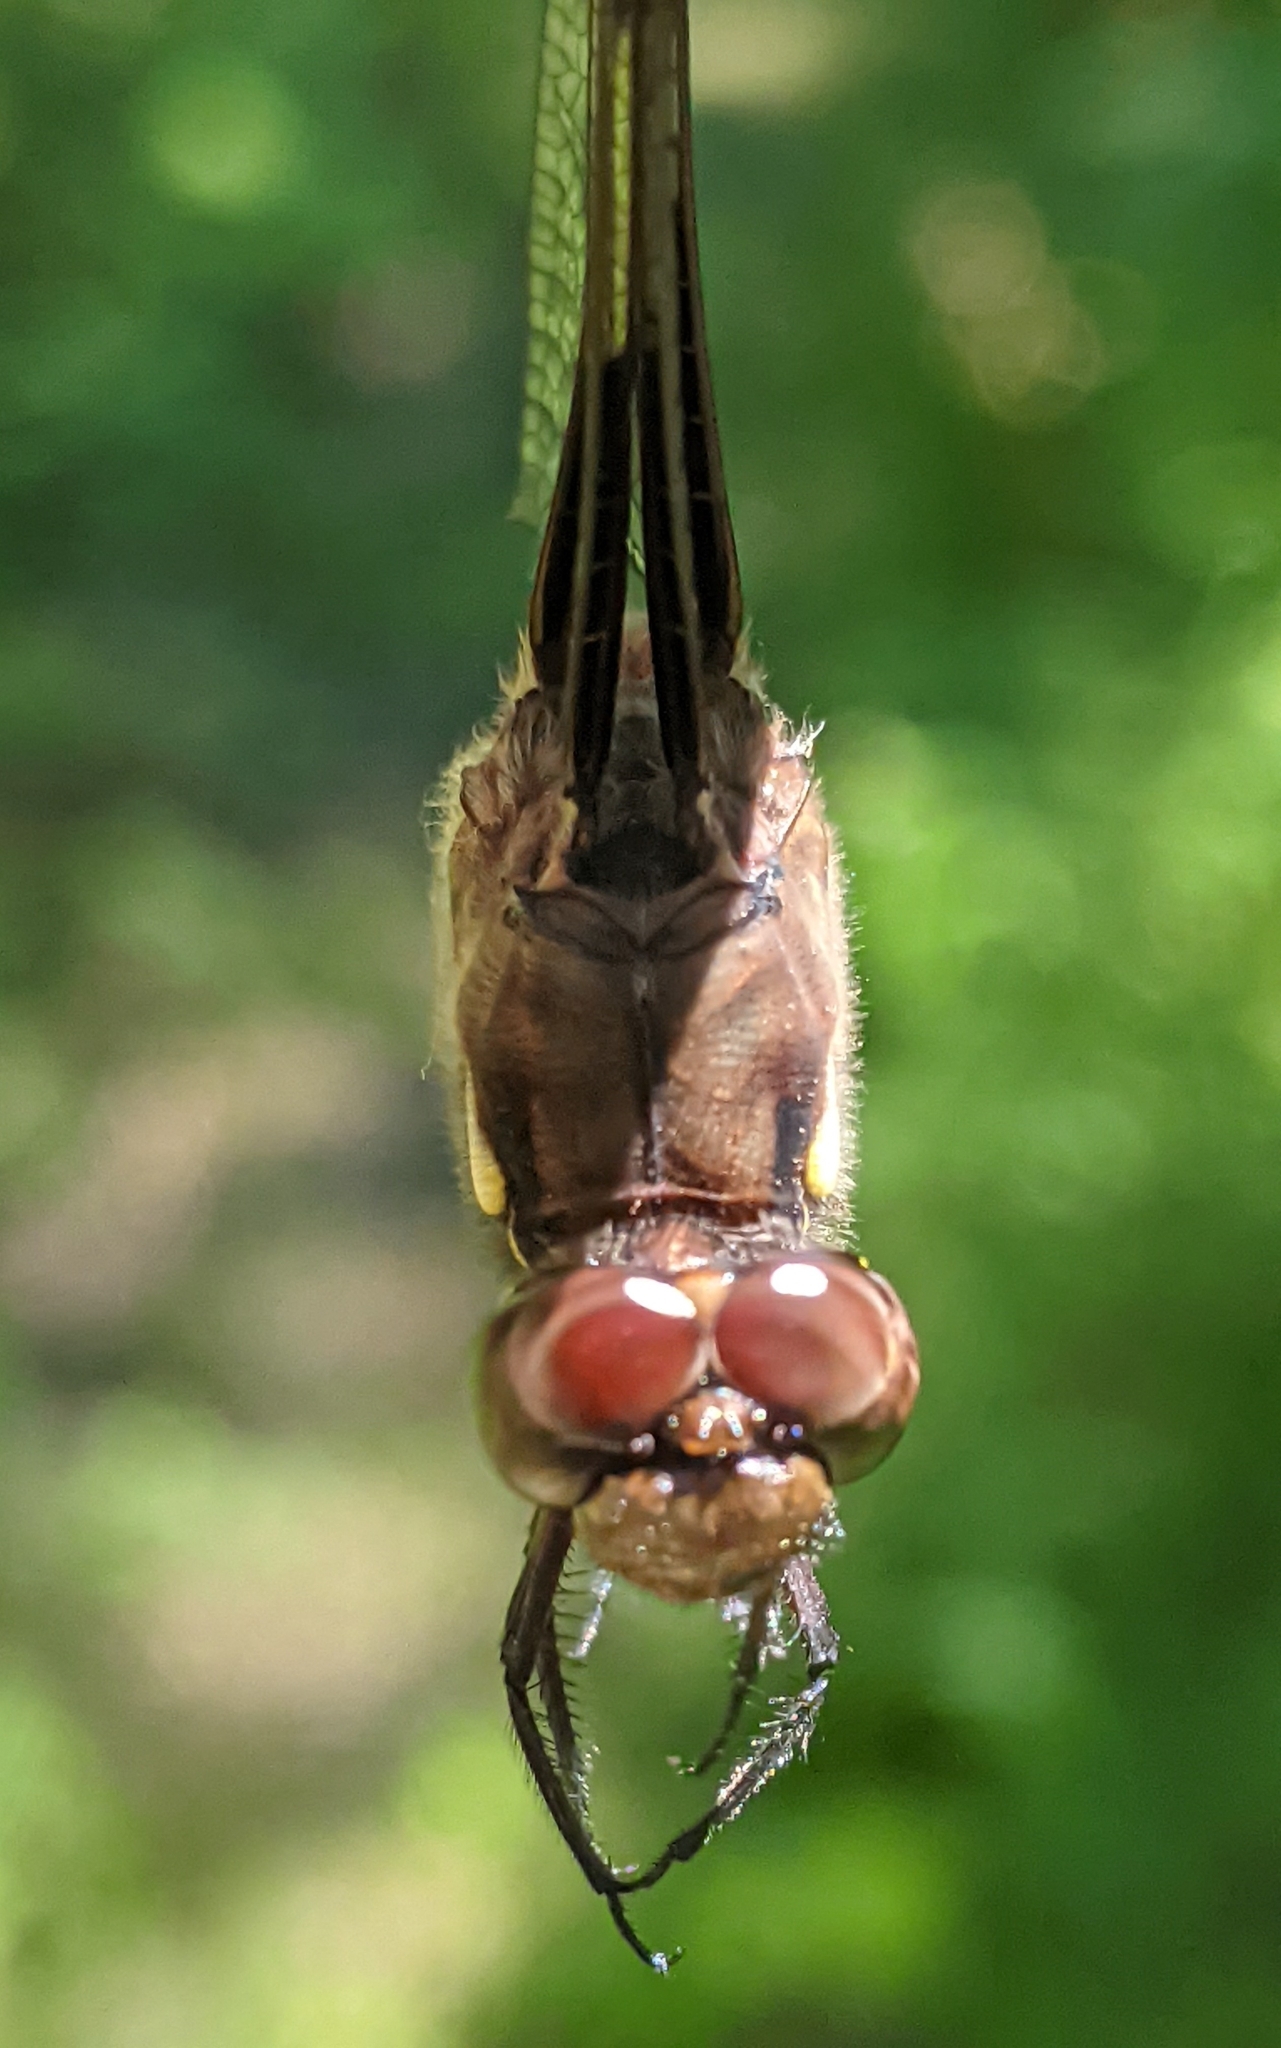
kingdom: Animalia
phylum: Arthropoda
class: Insecta
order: Odonata
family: Libellulidae
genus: Plathemis
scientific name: Plathemis lydia
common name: Common whitetail
